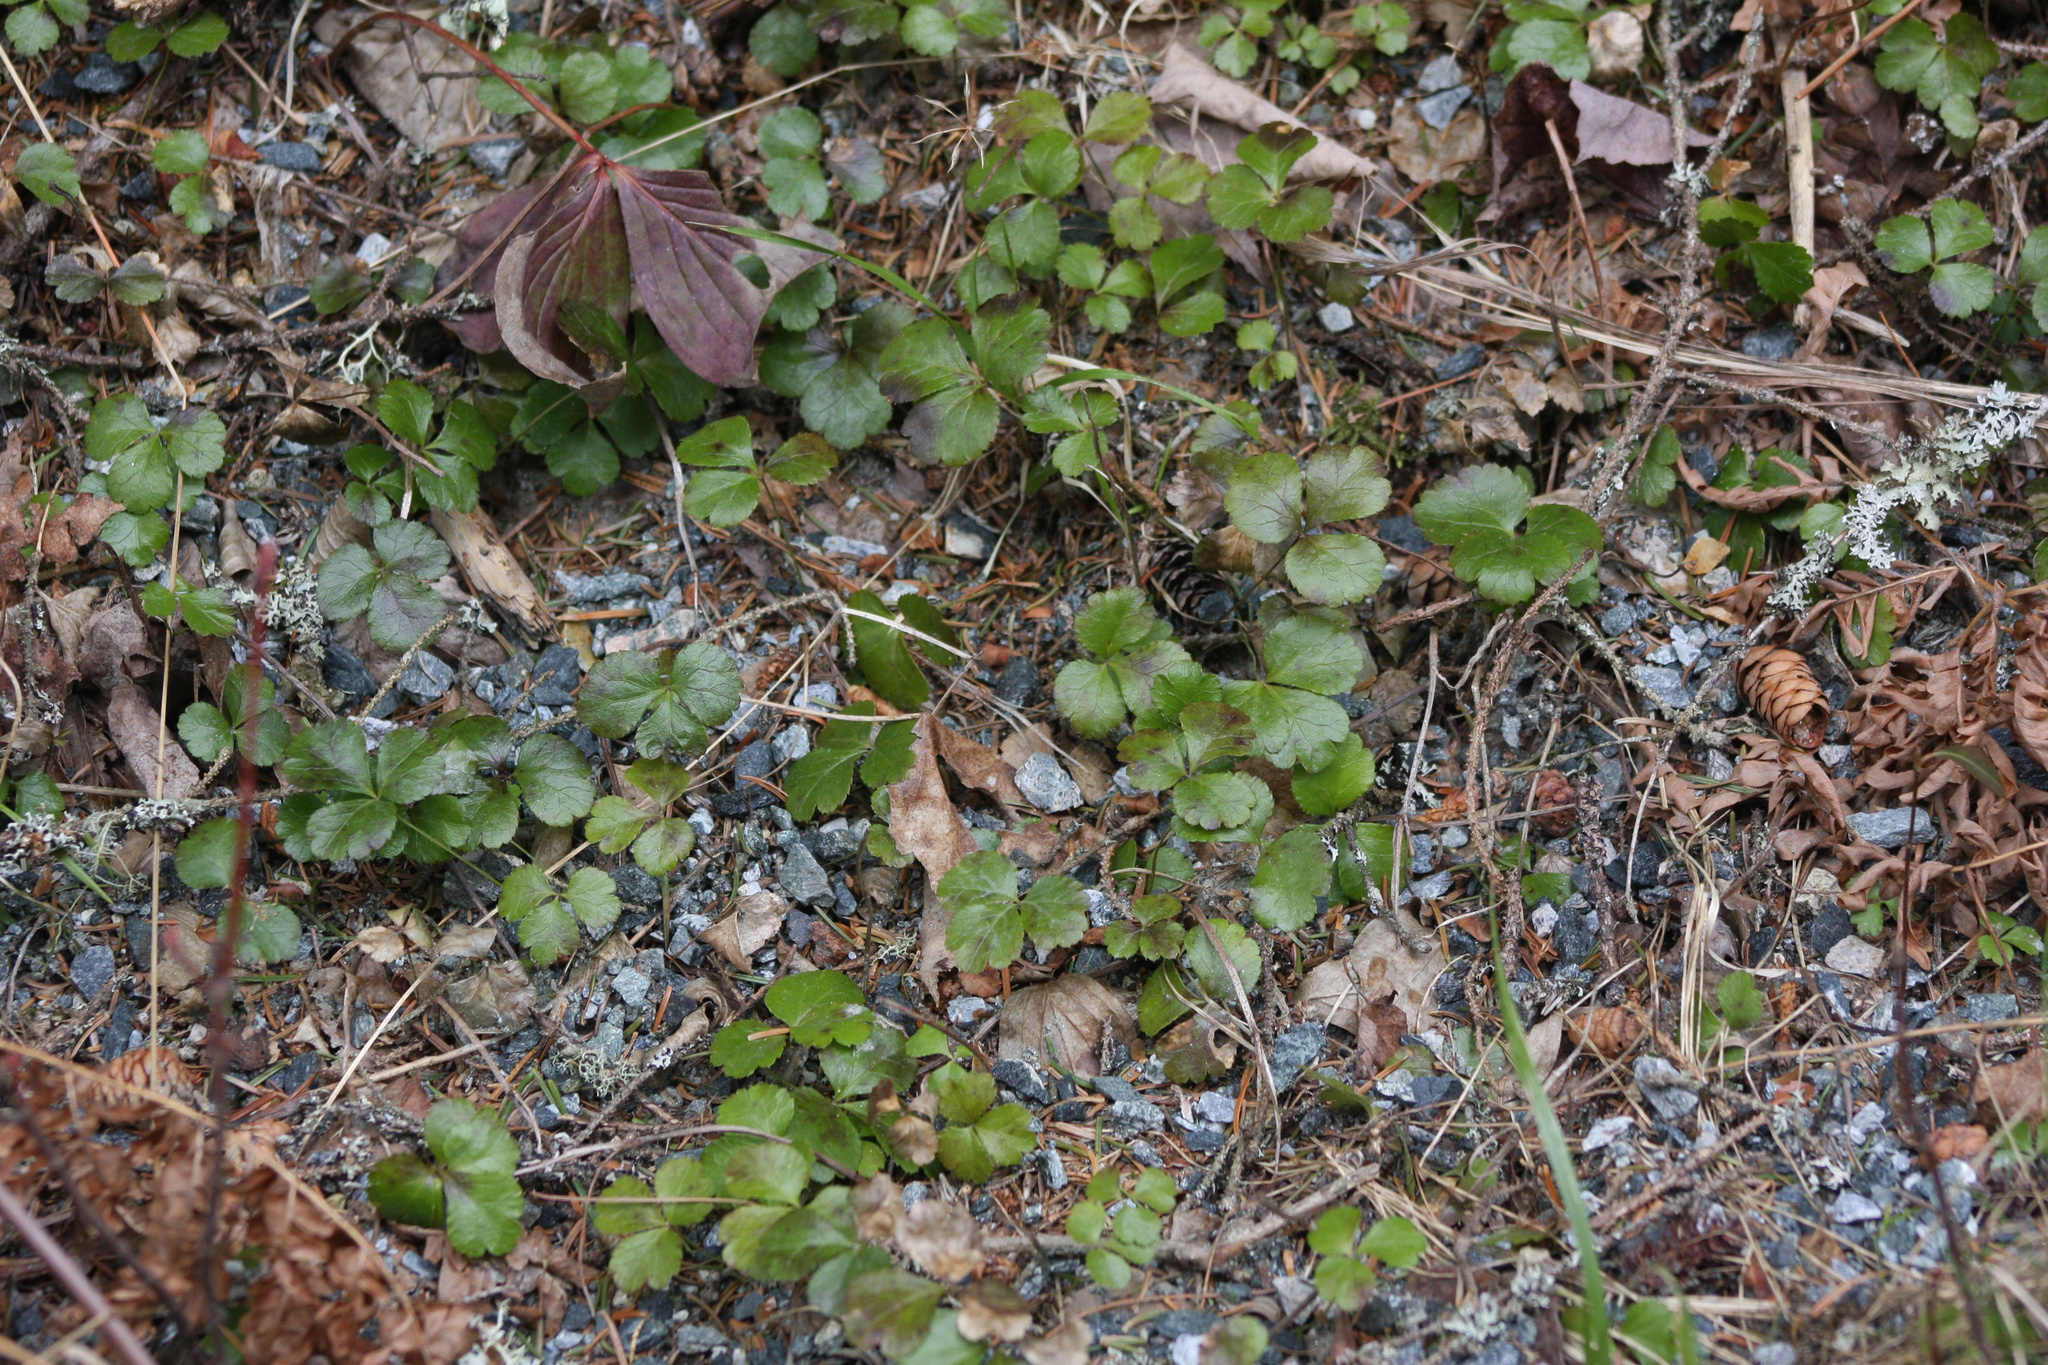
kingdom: Plantae
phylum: Tracheophyta
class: Magnoliopsida
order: Ranunculales
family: Ranunculaceae
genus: Coptis
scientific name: Coptis trifolia
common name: Canker-root
